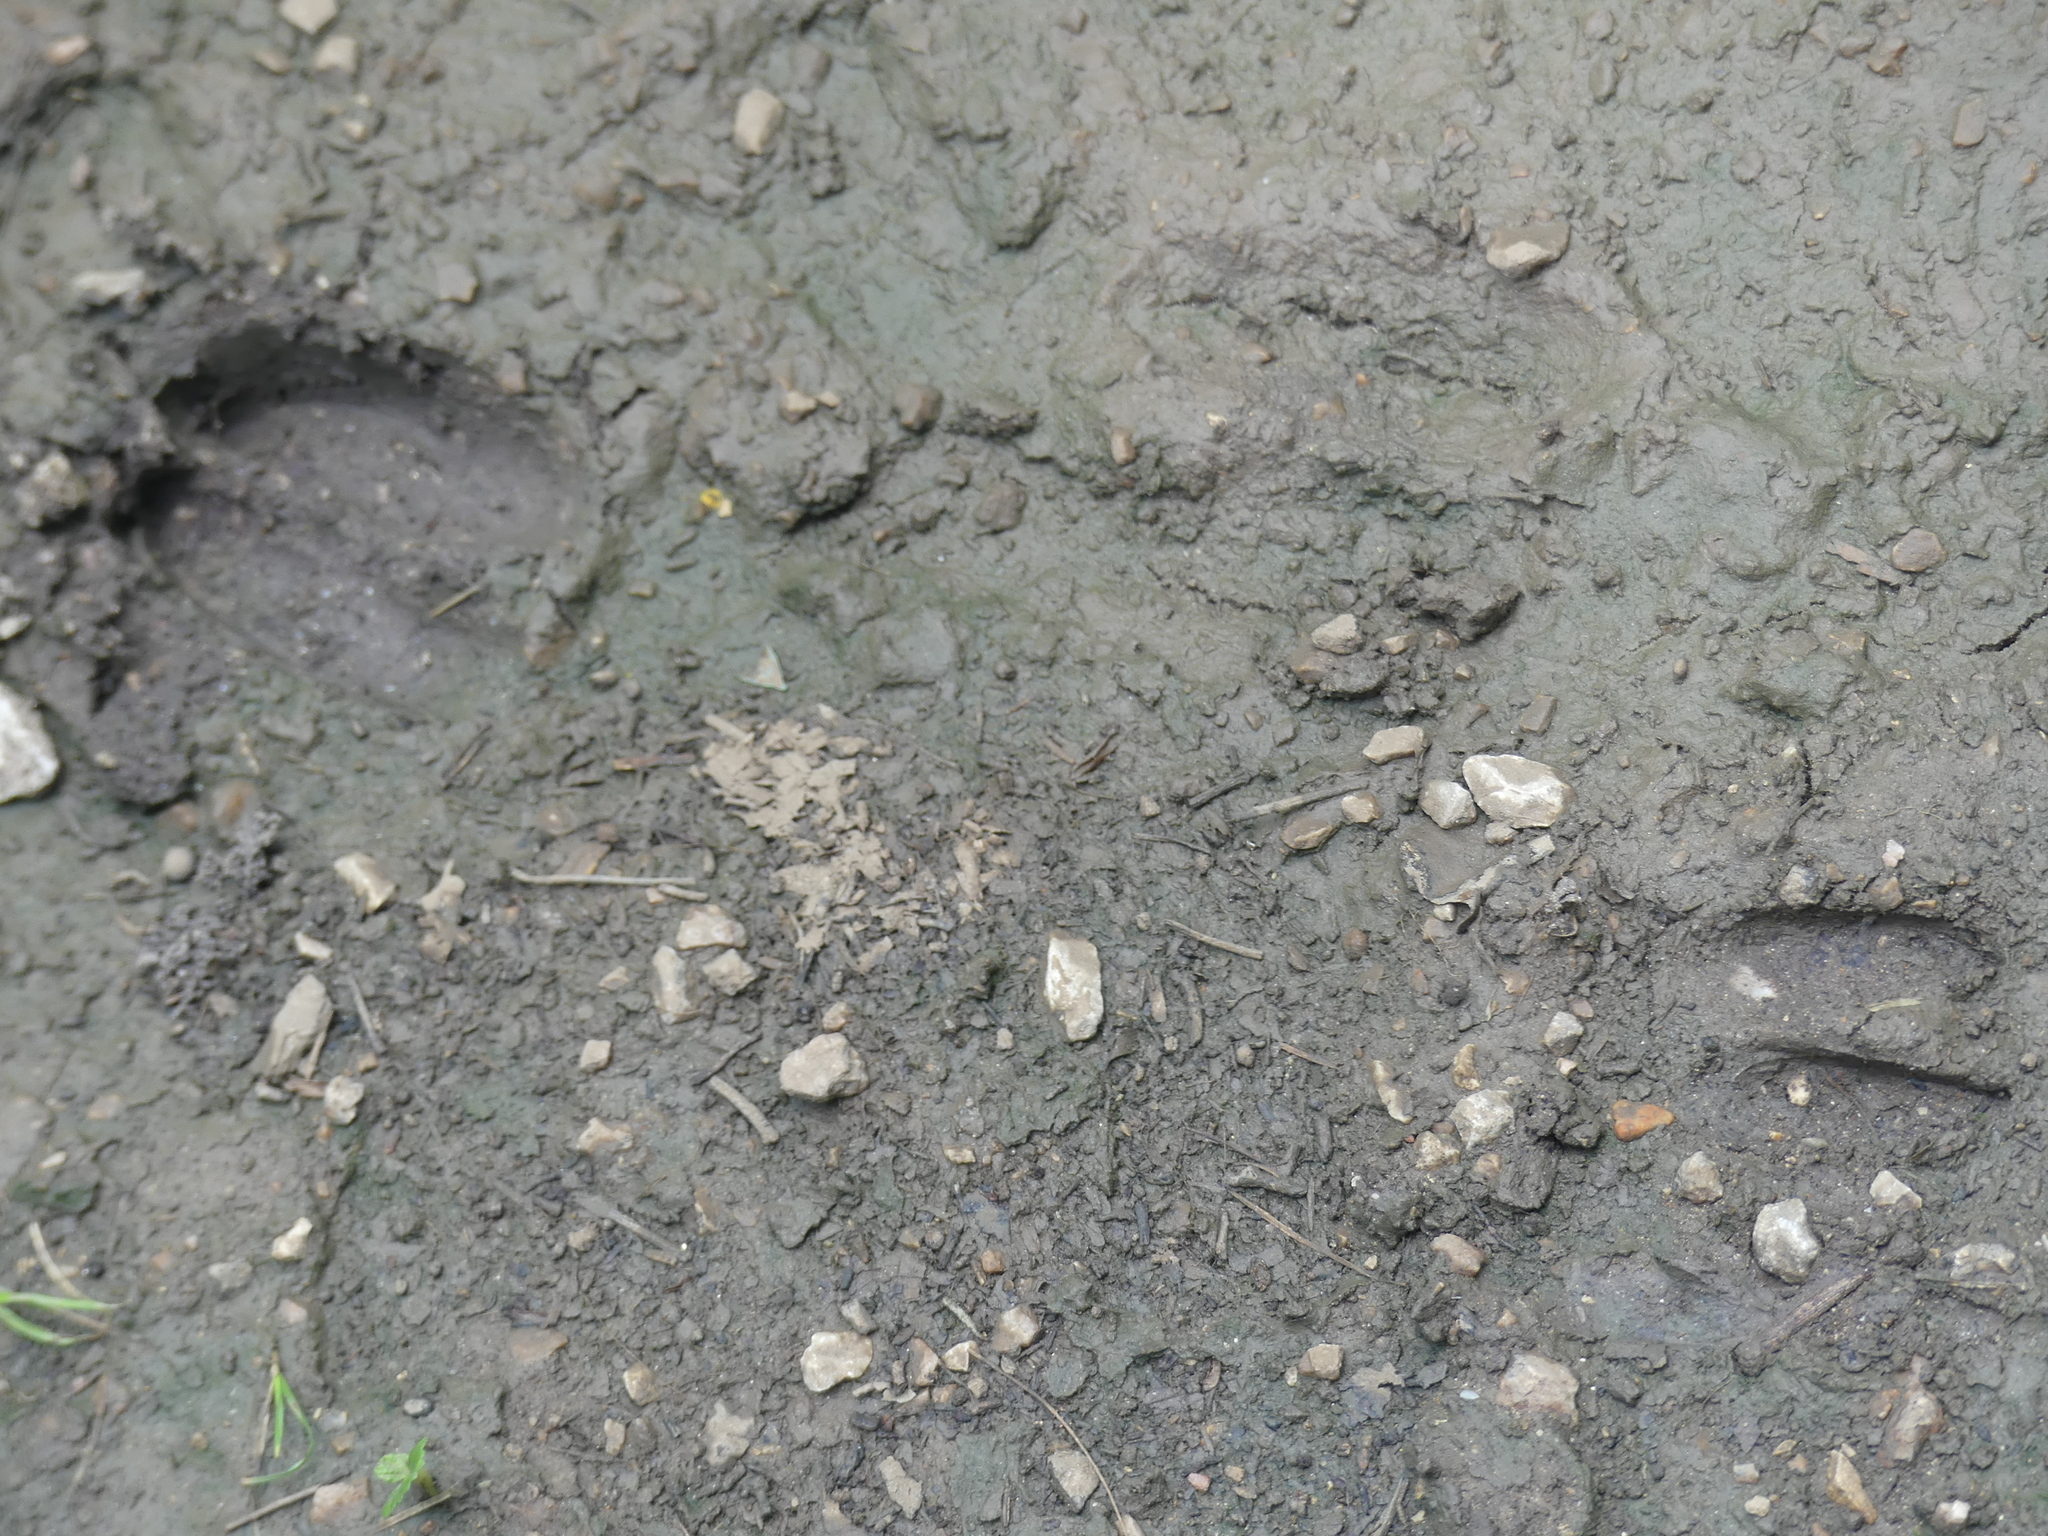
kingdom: Animalia
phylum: Chordata
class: Mammalia
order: Artiodactyla
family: Cervidae
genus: Odocoileus
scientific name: Odocoileus virginianus
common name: White-tailed deer
